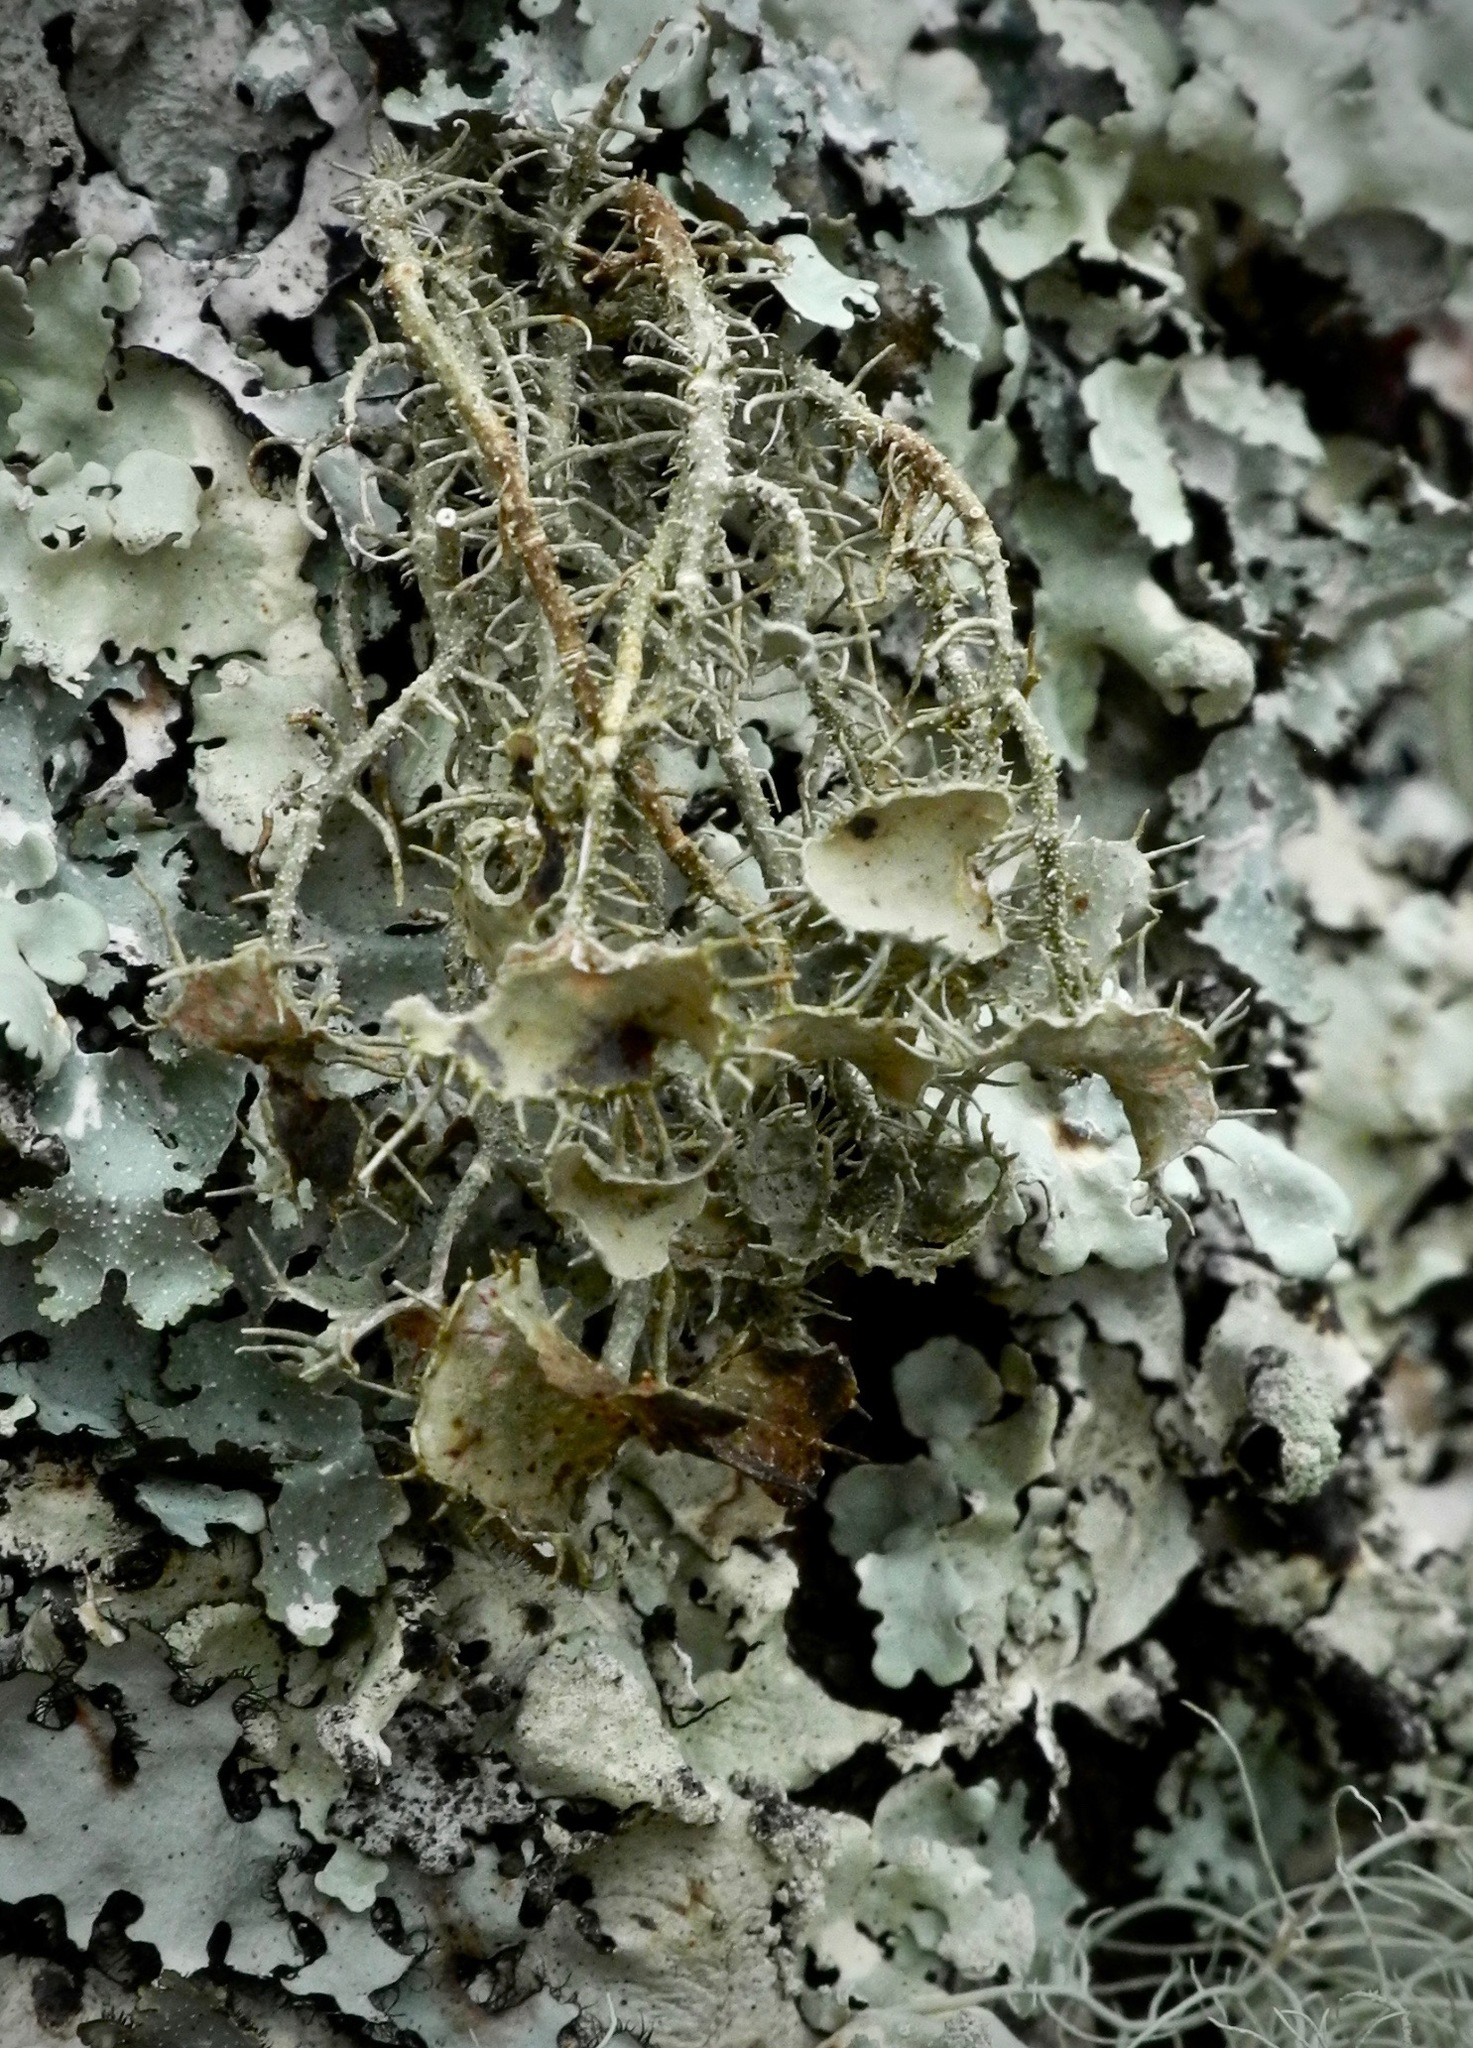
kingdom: Fungi
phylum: Ascomycota
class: Lecanoromycetes
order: Lecanorales
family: Parmeliaceae
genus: Usnea
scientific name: Usnea strigosa
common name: Bushy beard lichen
